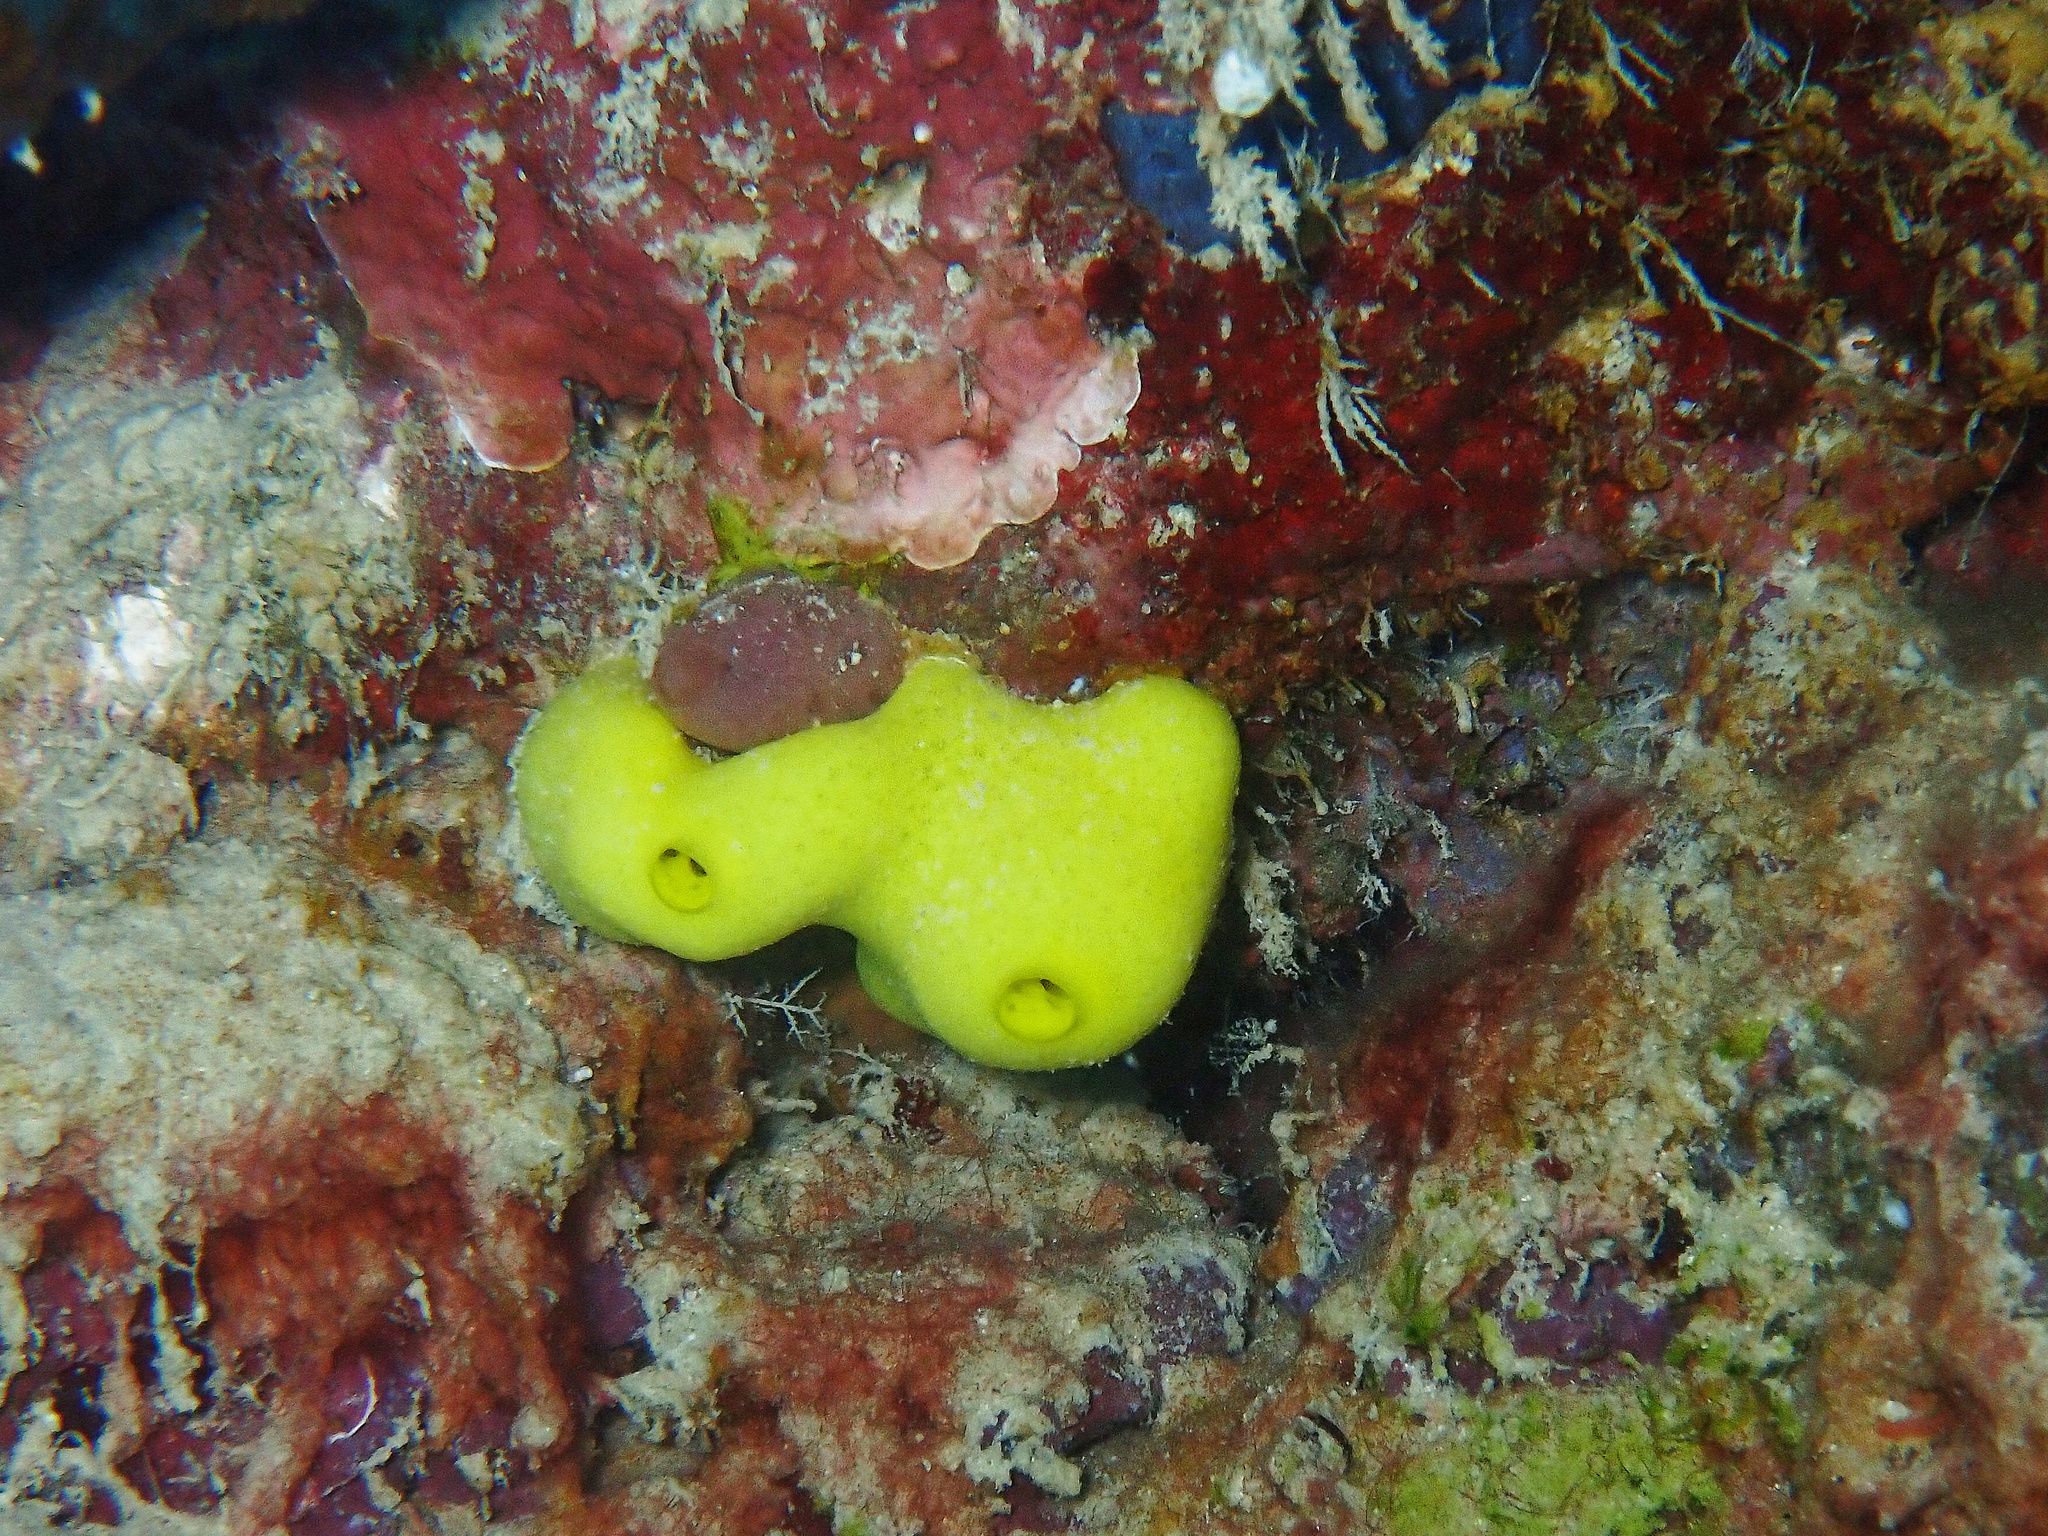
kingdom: Animalia
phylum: Porifera
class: Calcarea
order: Clathrinida
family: Leucettidae
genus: Leucetta
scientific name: Leucetta chagosensis
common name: Lemon sponge
